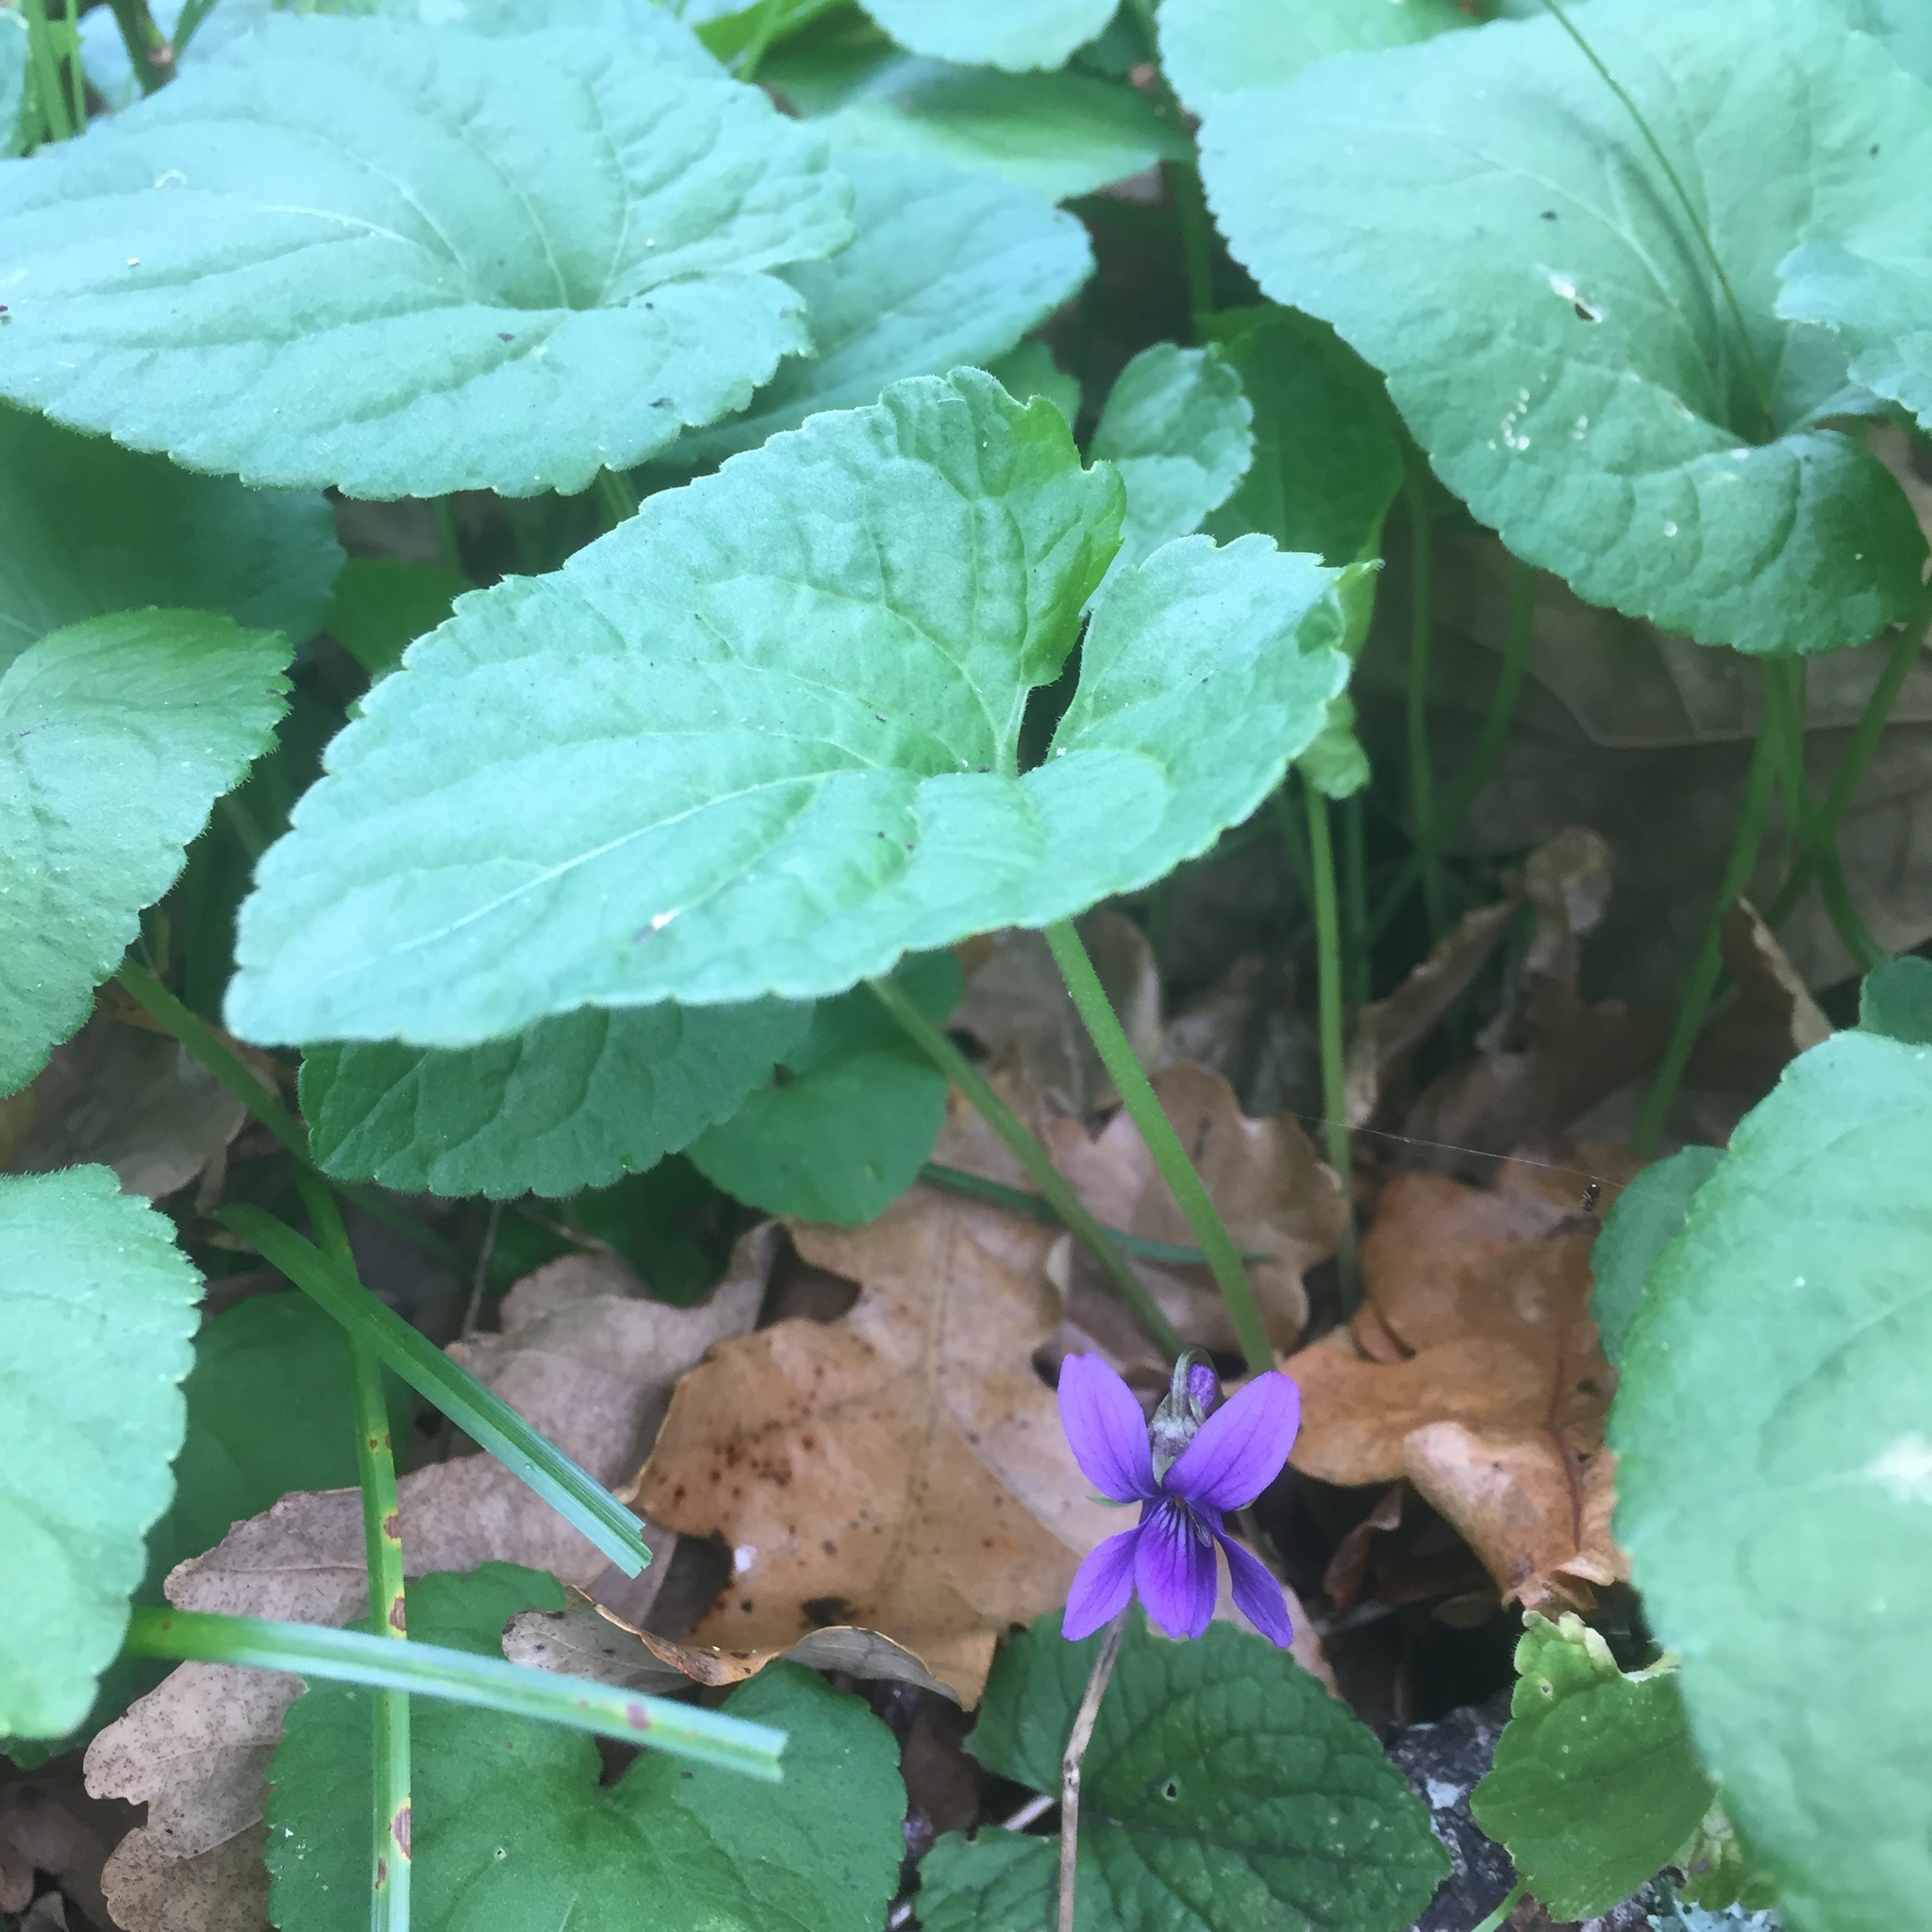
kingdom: Plantae
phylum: Tracheophyta
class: Magnoliopsida
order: Malpighiales
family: Violaceae
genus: Viola
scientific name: Viola odorata
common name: Sweet violet
